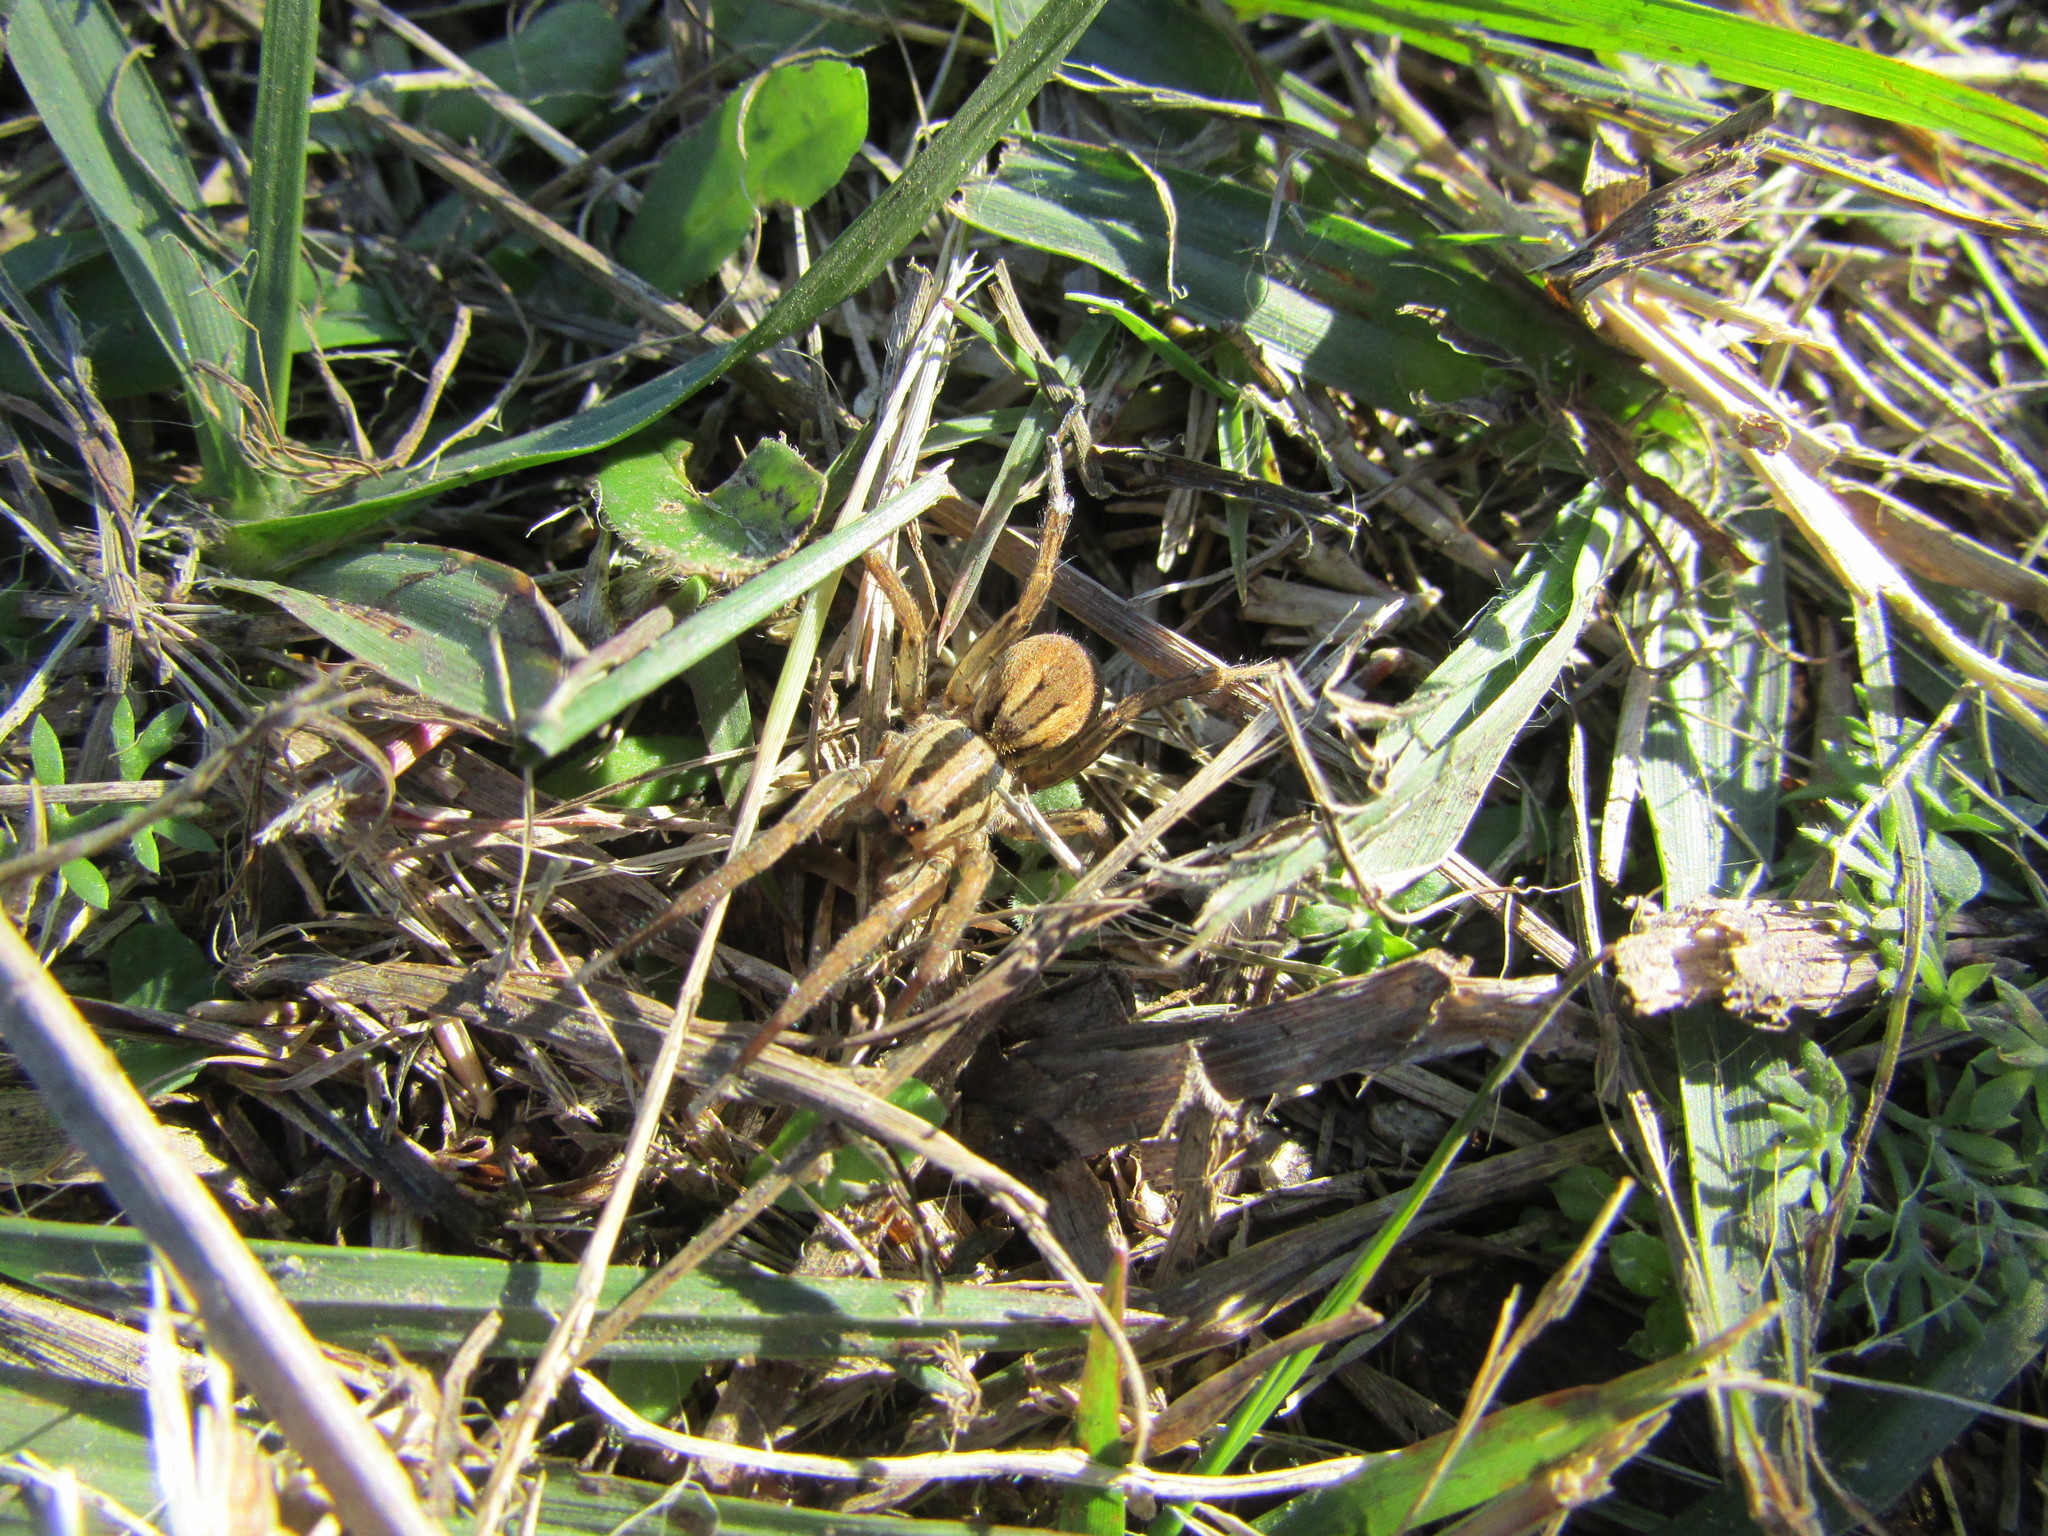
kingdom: Animalia
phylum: Arthropoda
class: Arachnida
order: Araneae
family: Lycosidae
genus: Hogna
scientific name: Hogna bivittata
